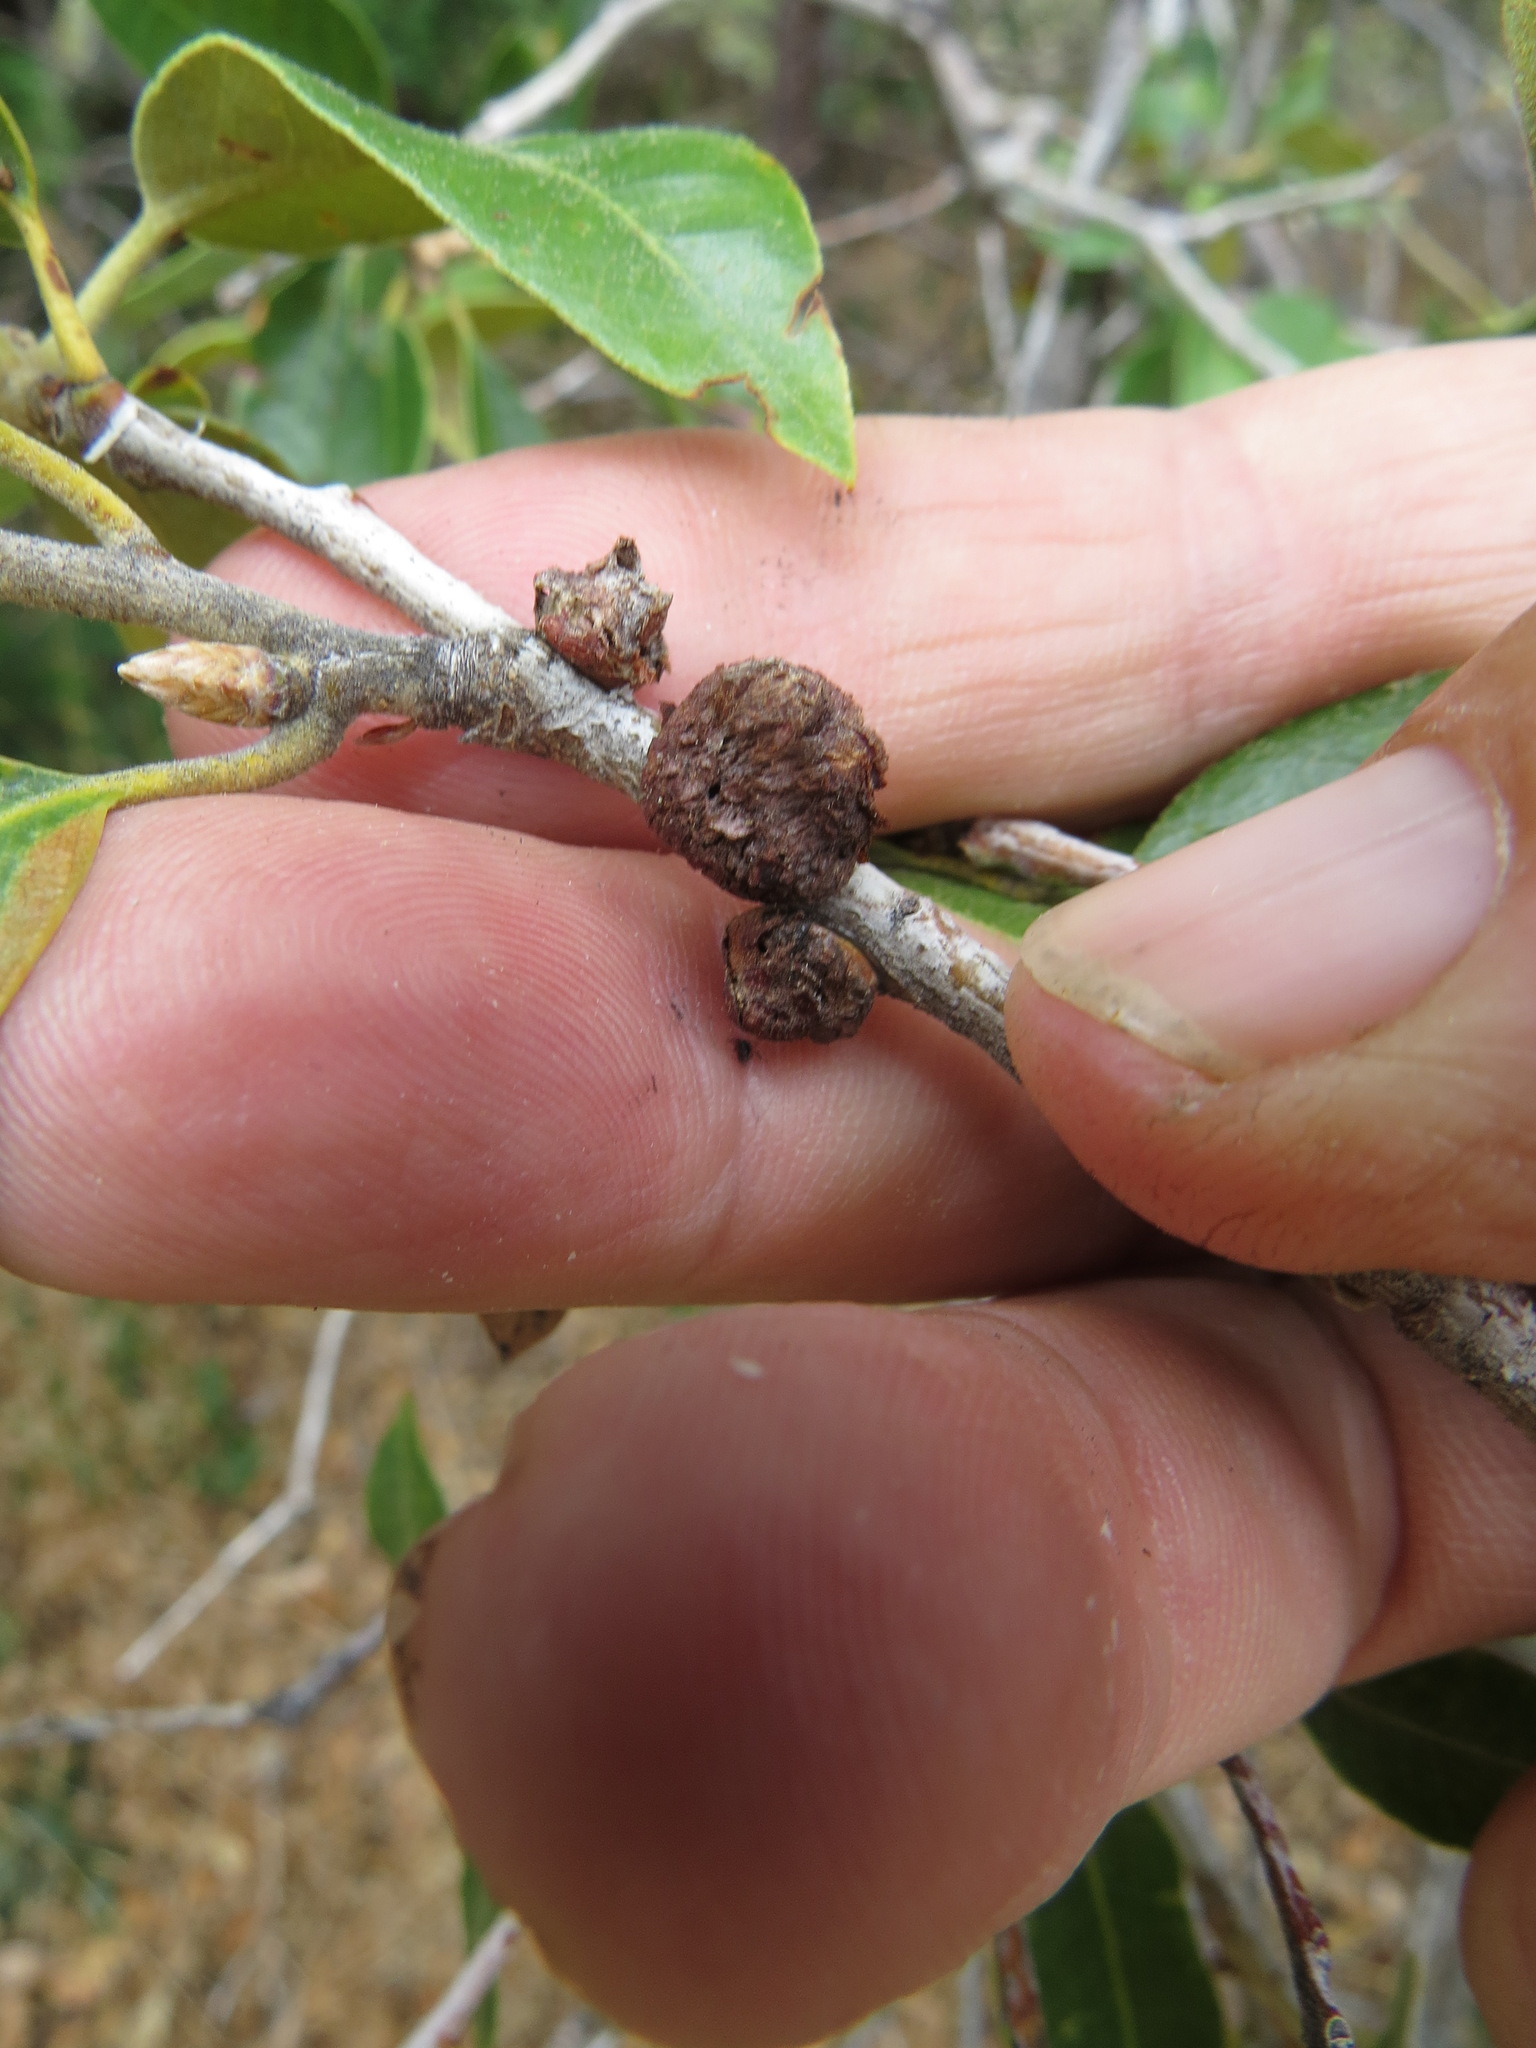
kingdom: Animalia
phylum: Arthropoda
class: Insecta
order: Hymenoptera
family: Cynipidae
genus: Disholandricus
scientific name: Disholandricus
